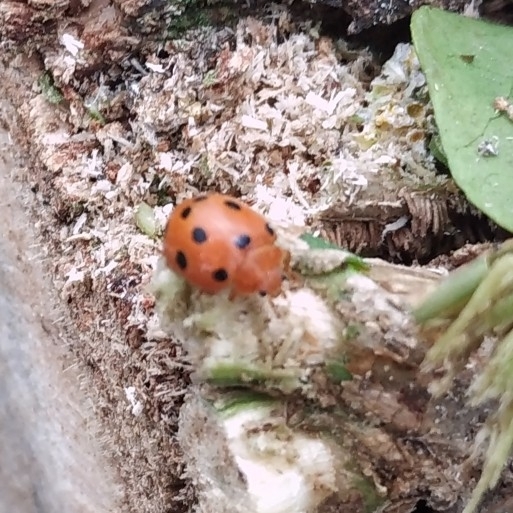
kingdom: Animalia
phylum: Arthropoda
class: Insecta
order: Coleoptera
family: Coccinellidae
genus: Henosepilachna
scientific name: Henosepilachna argus
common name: Bryony ladybird
